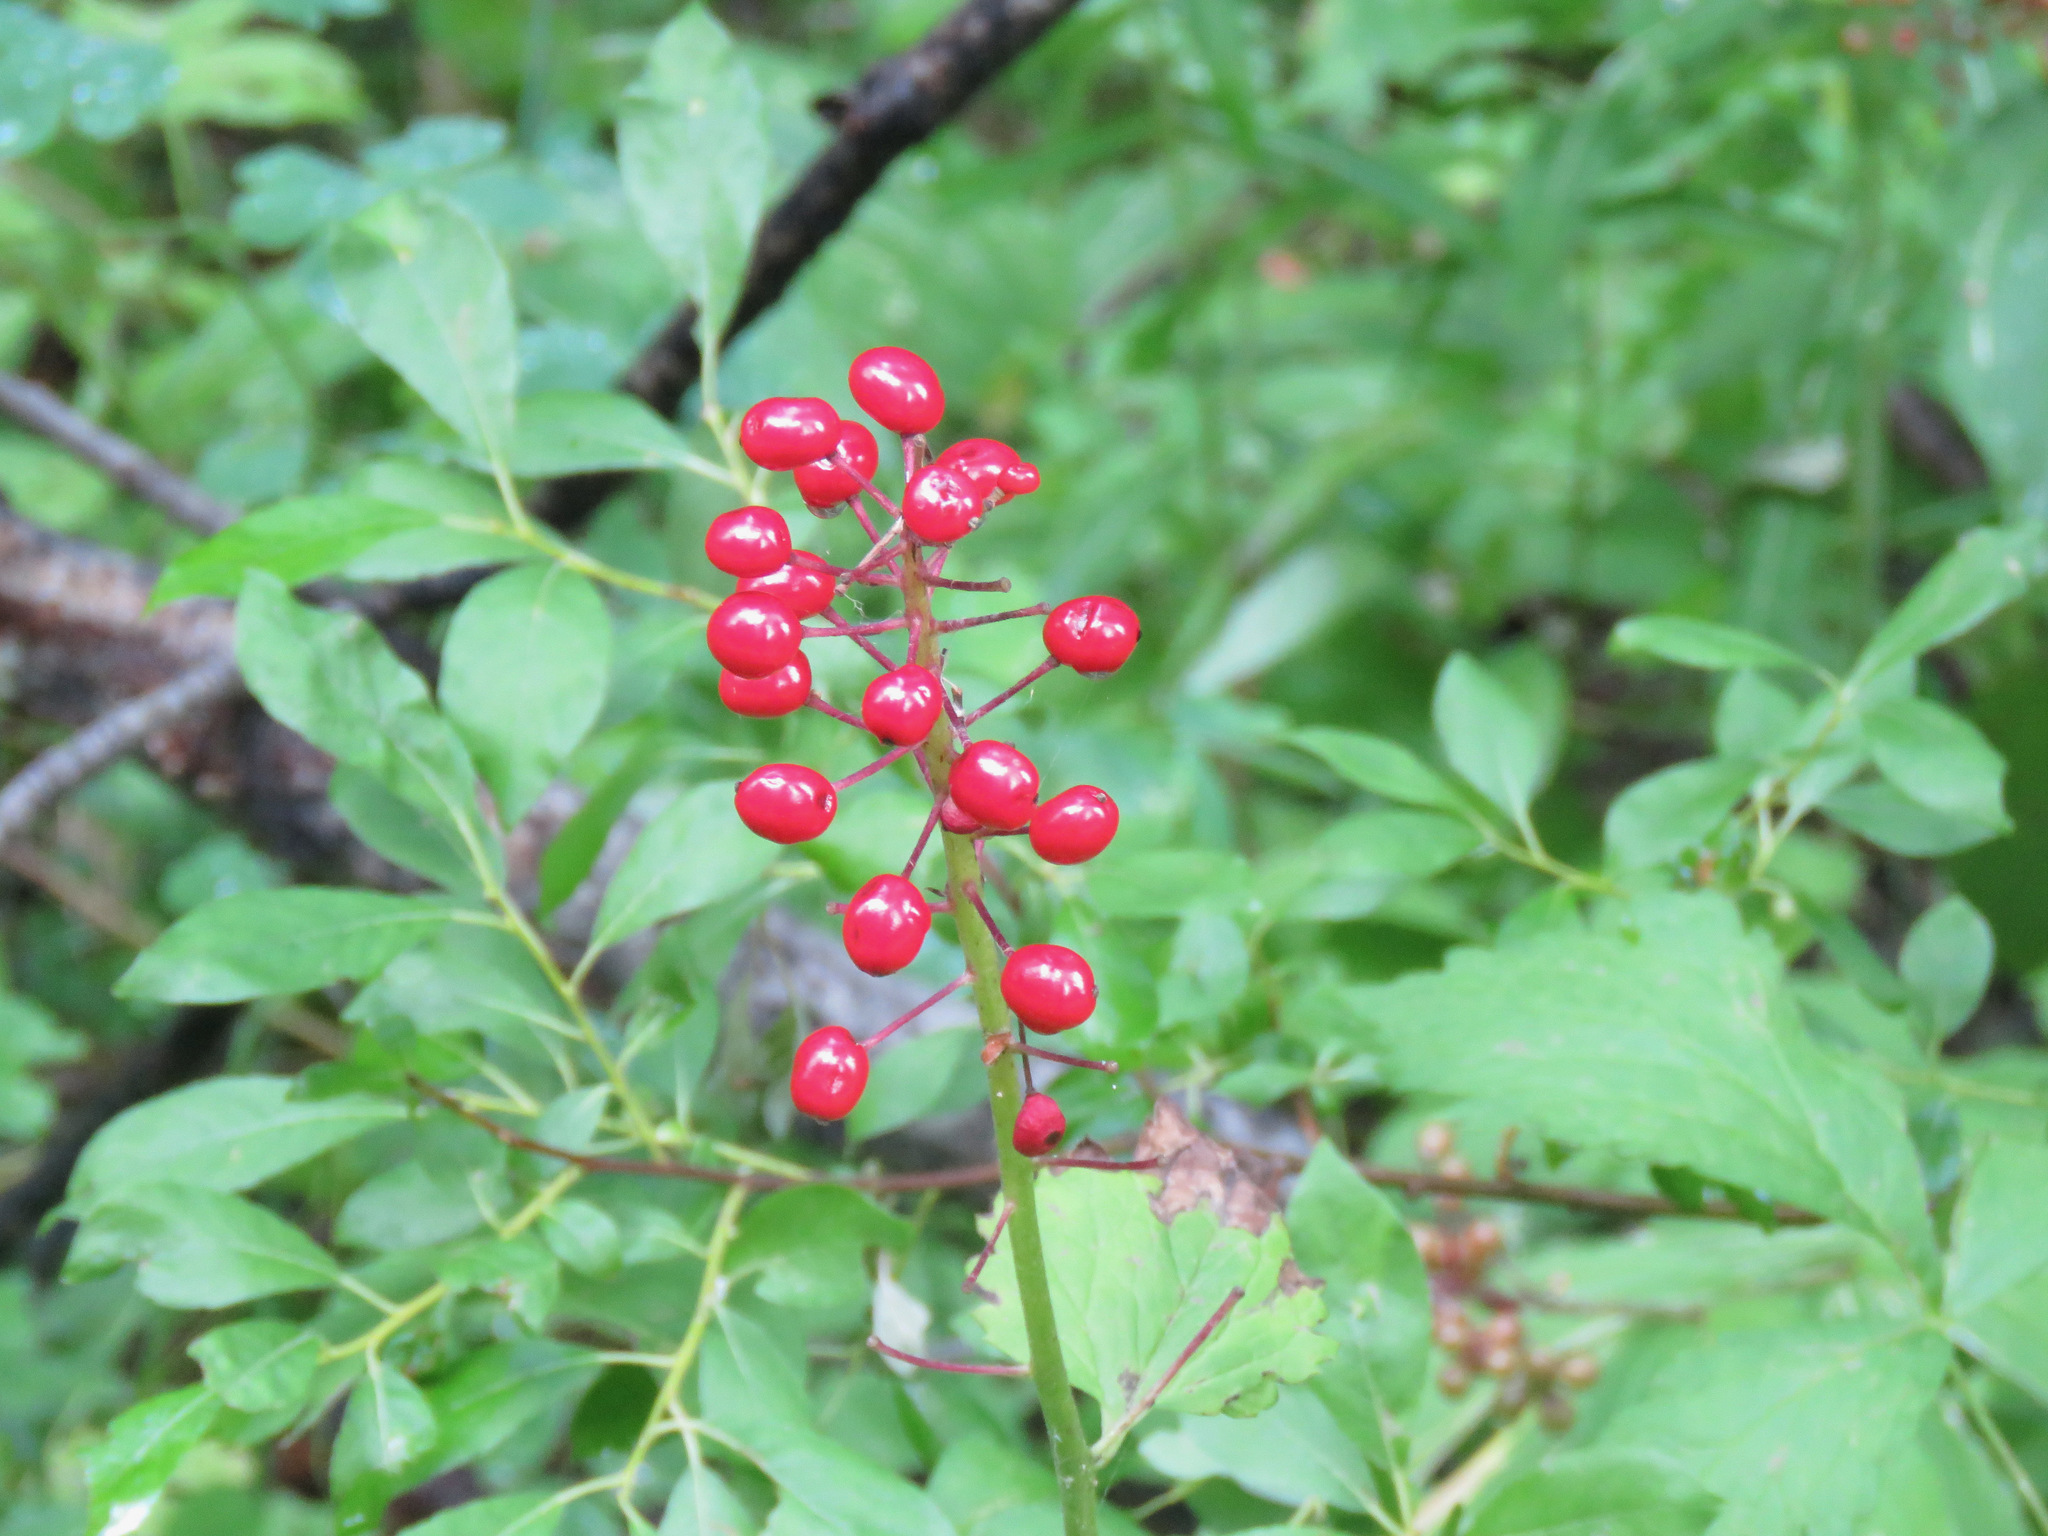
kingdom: Plantae
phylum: Tracheophyta
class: Magnoliopsida
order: Ranunculales
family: Ranunculaceae
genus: Actaea
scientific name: Actaea rubra
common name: Red baneberry
